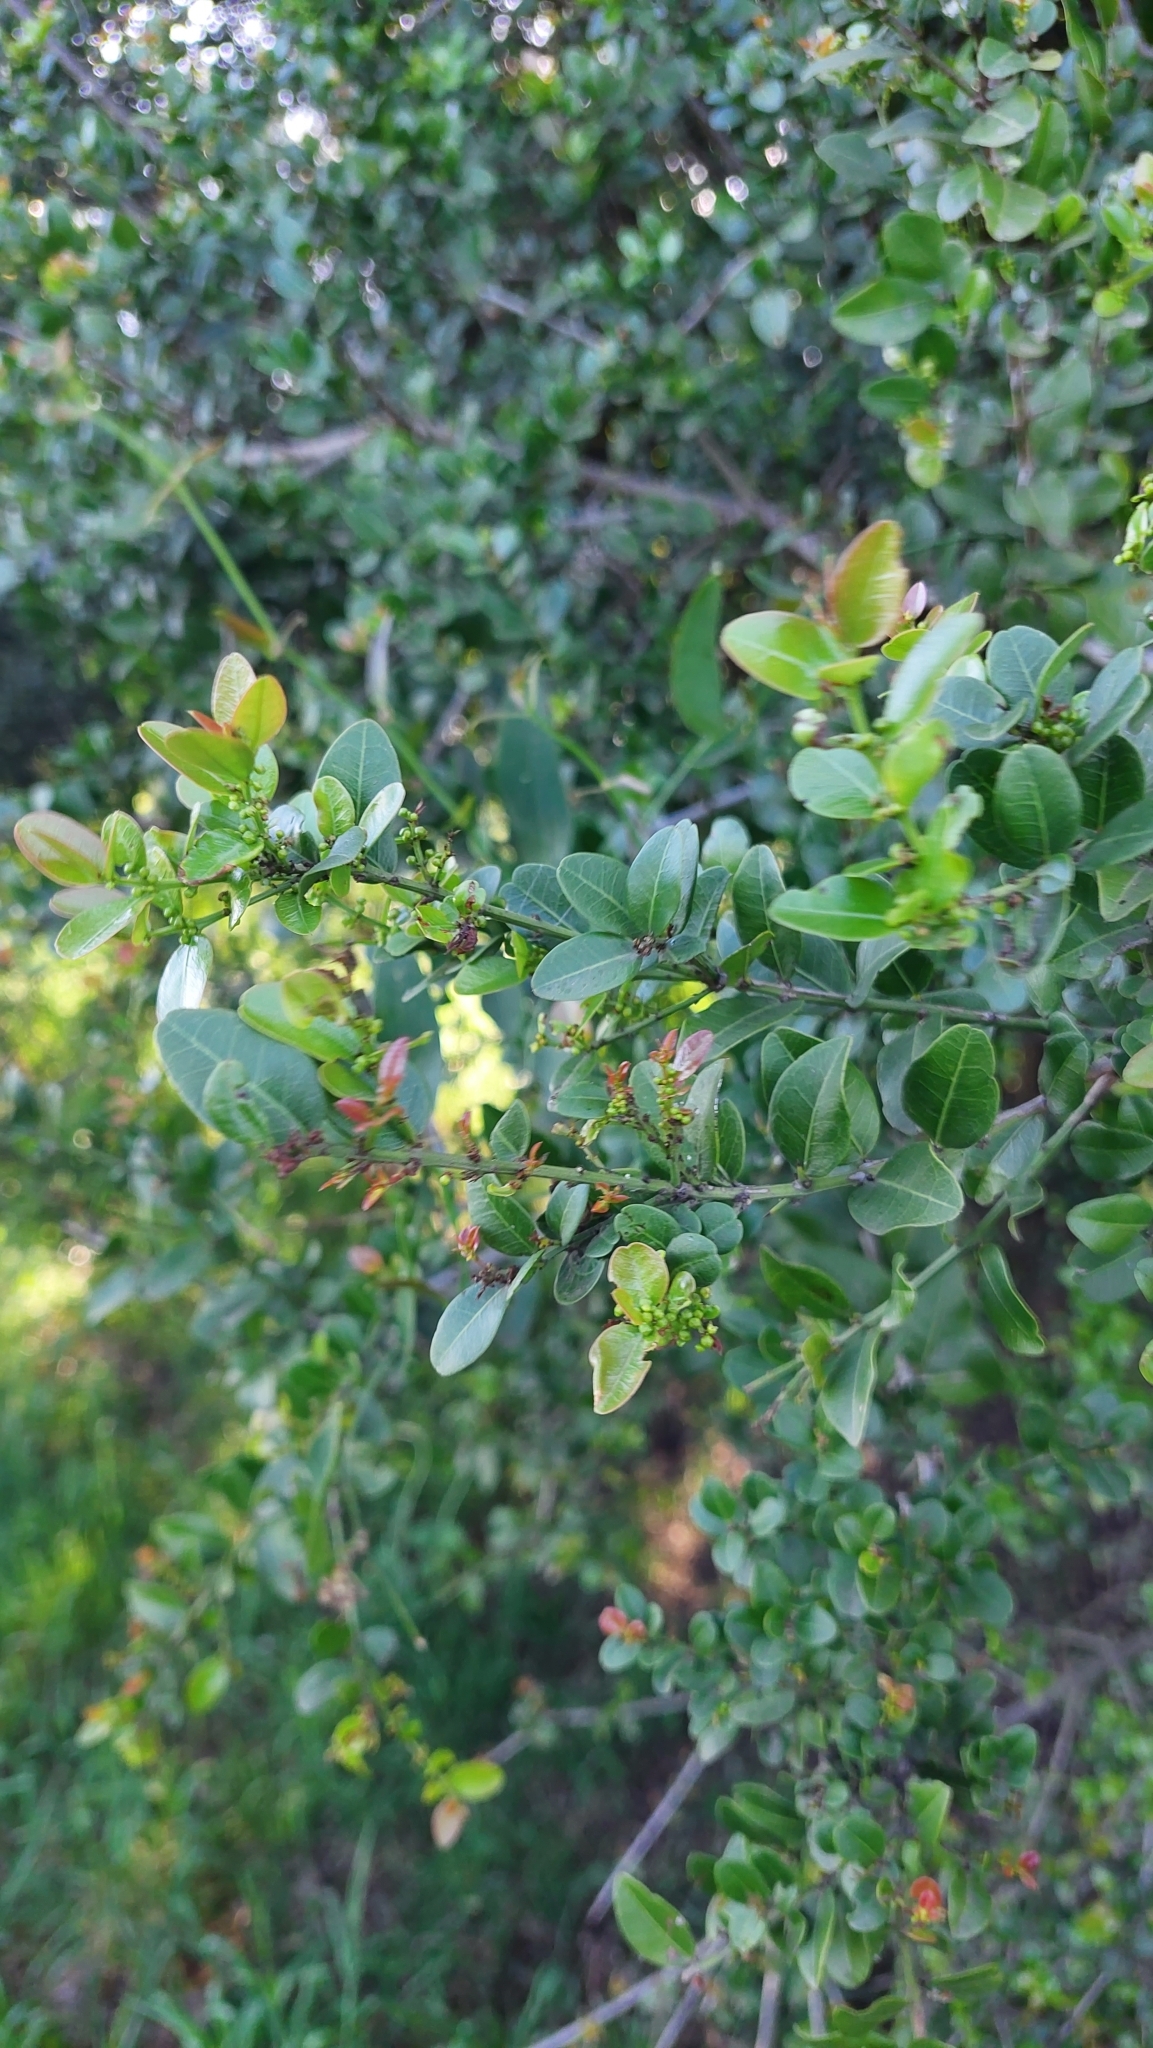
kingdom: Plantae
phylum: Tracheophyta
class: Magnoliopsida
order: Rosales
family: Rhamnaceae
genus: Scutia
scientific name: Scutia buxifolia
